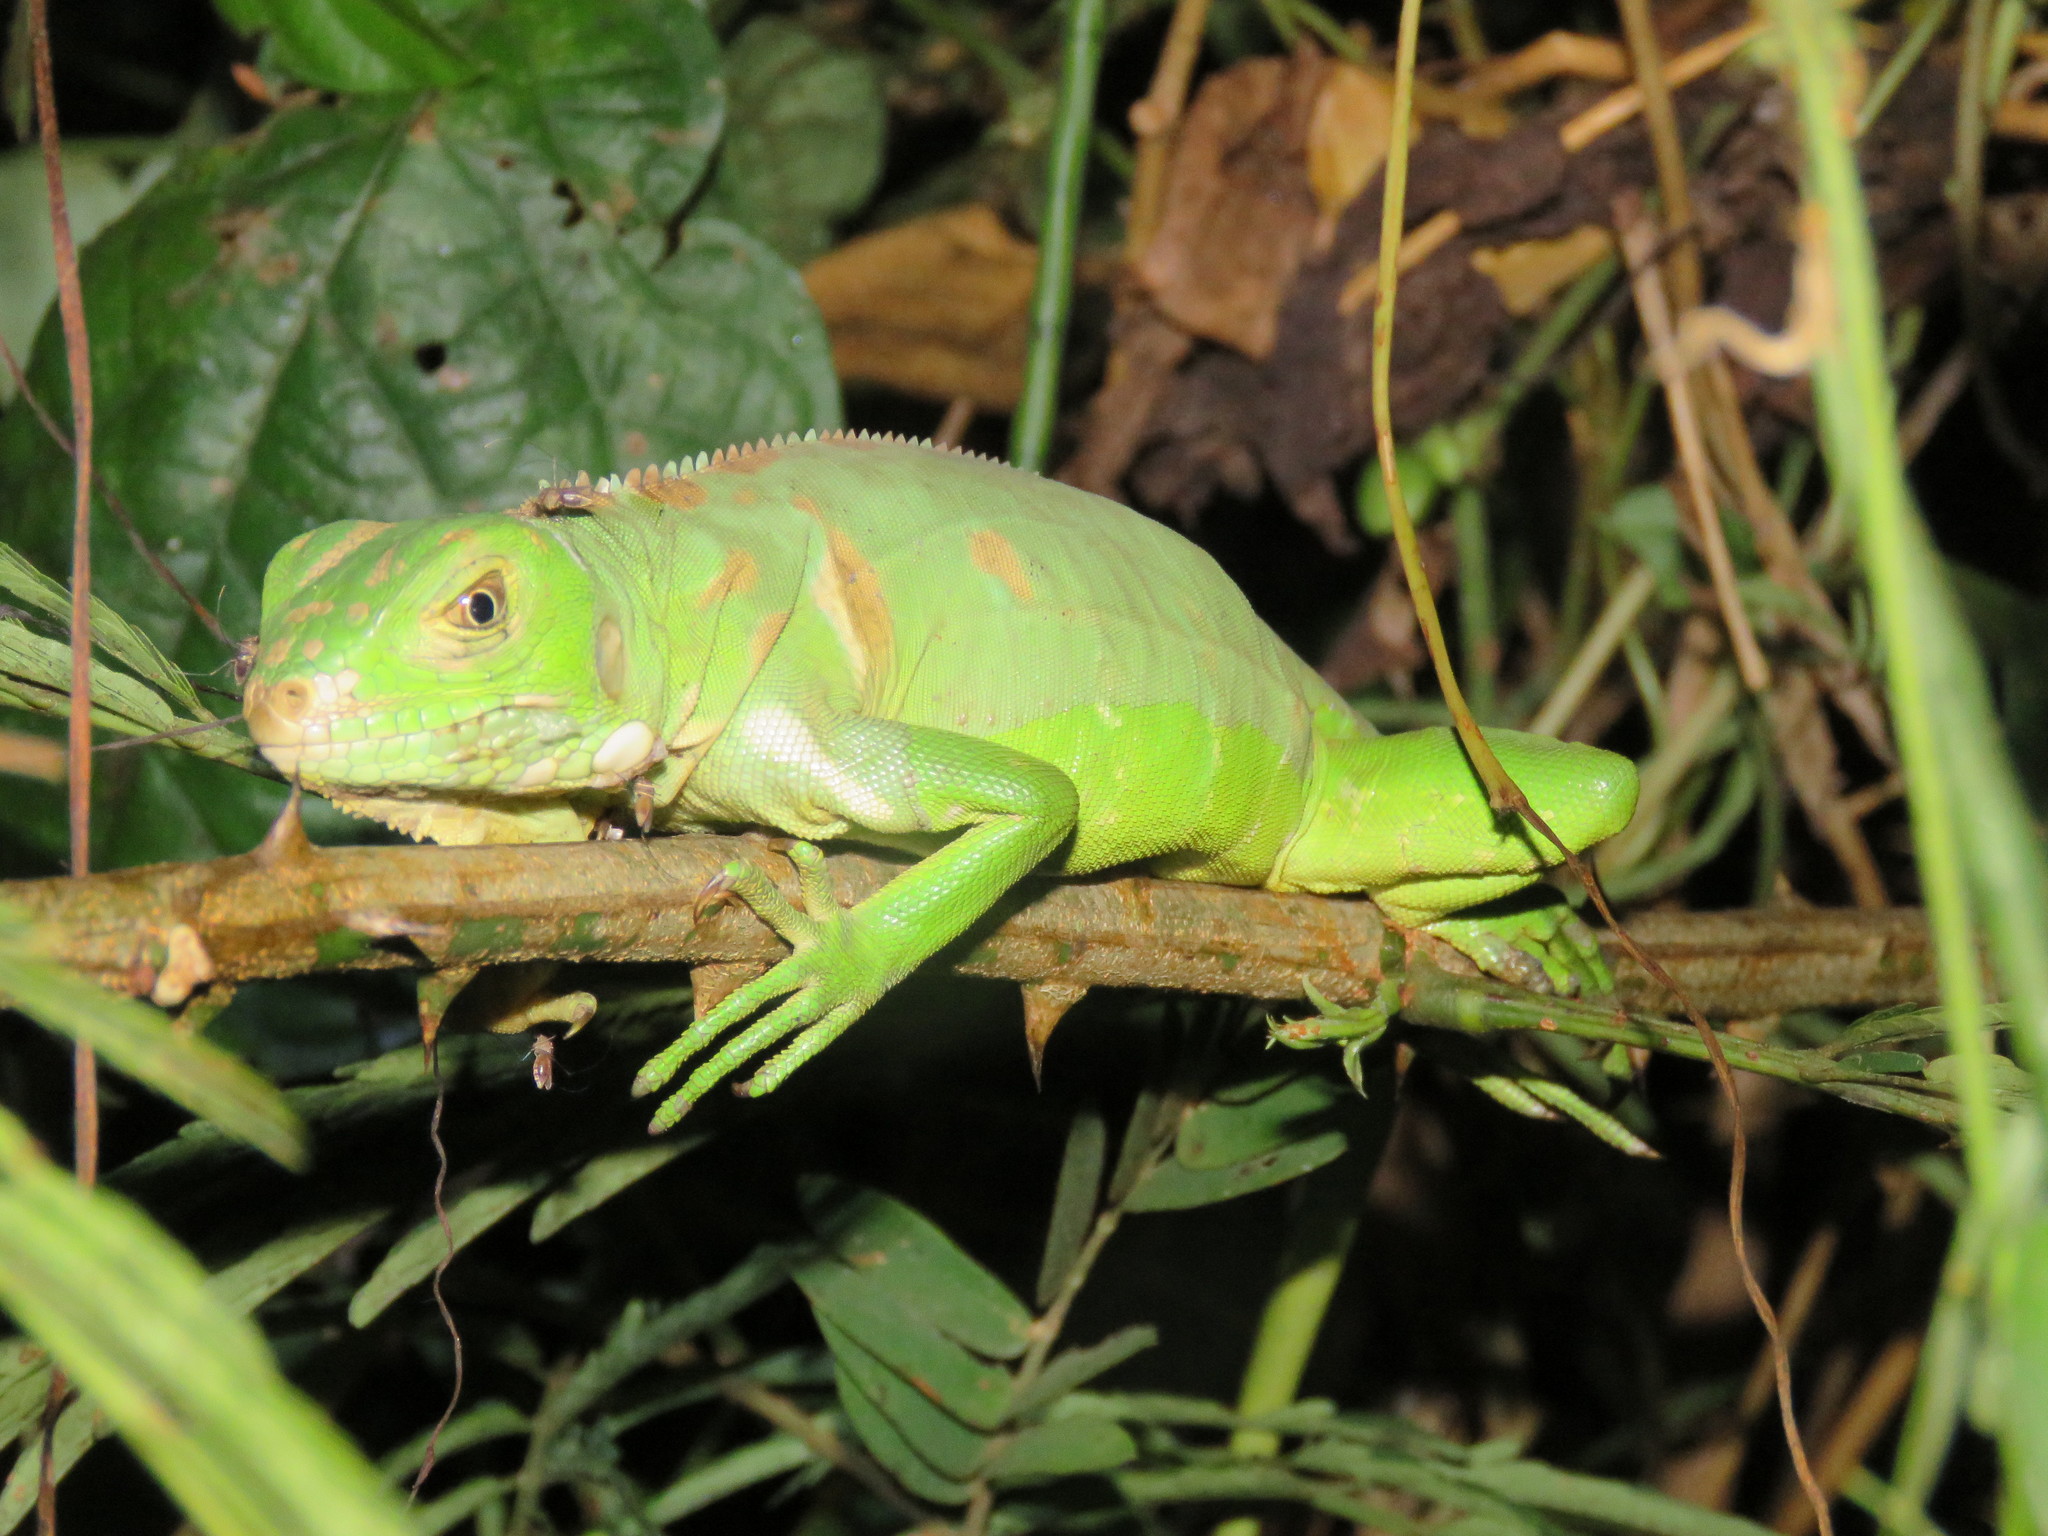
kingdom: Animalia
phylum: Chordata
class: Squamata
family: Iguanidae
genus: Iguana
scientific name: Iguana iguana
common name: Green iguana
